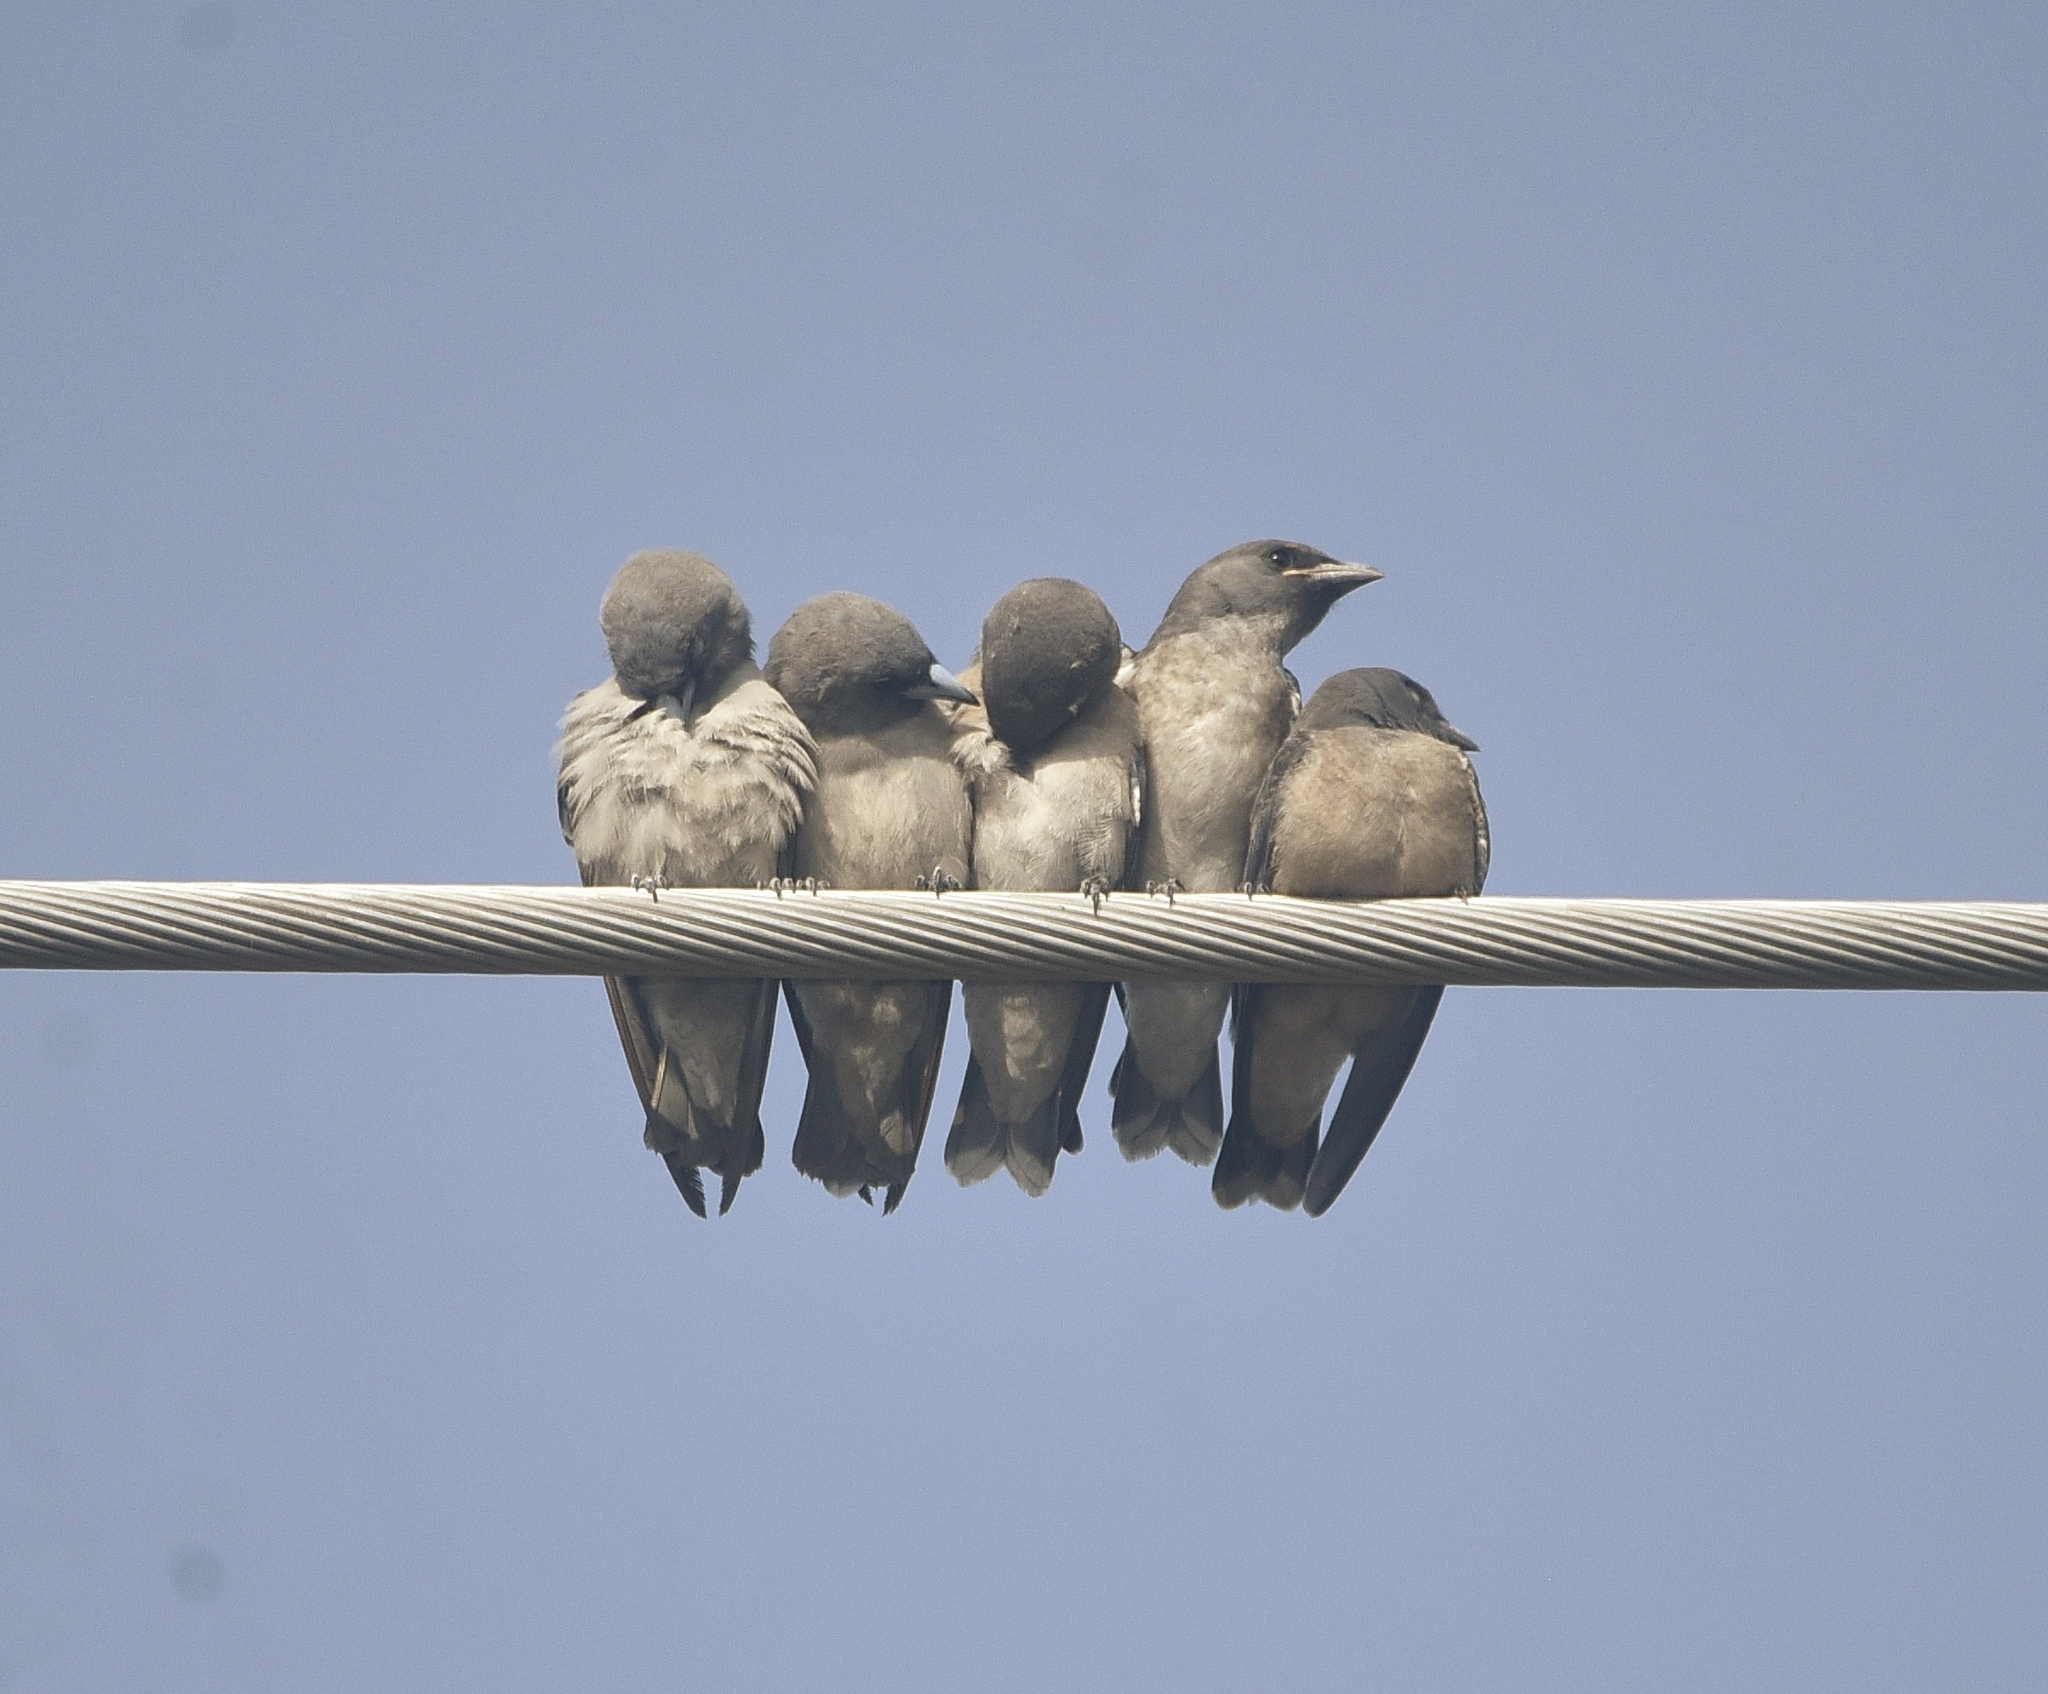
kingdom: Animalia
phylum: Chordata
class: Aves
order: Passeriformes
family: Artamidae
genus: Artamus
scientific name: Artamus fuscus
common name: Ashy woodswallow
